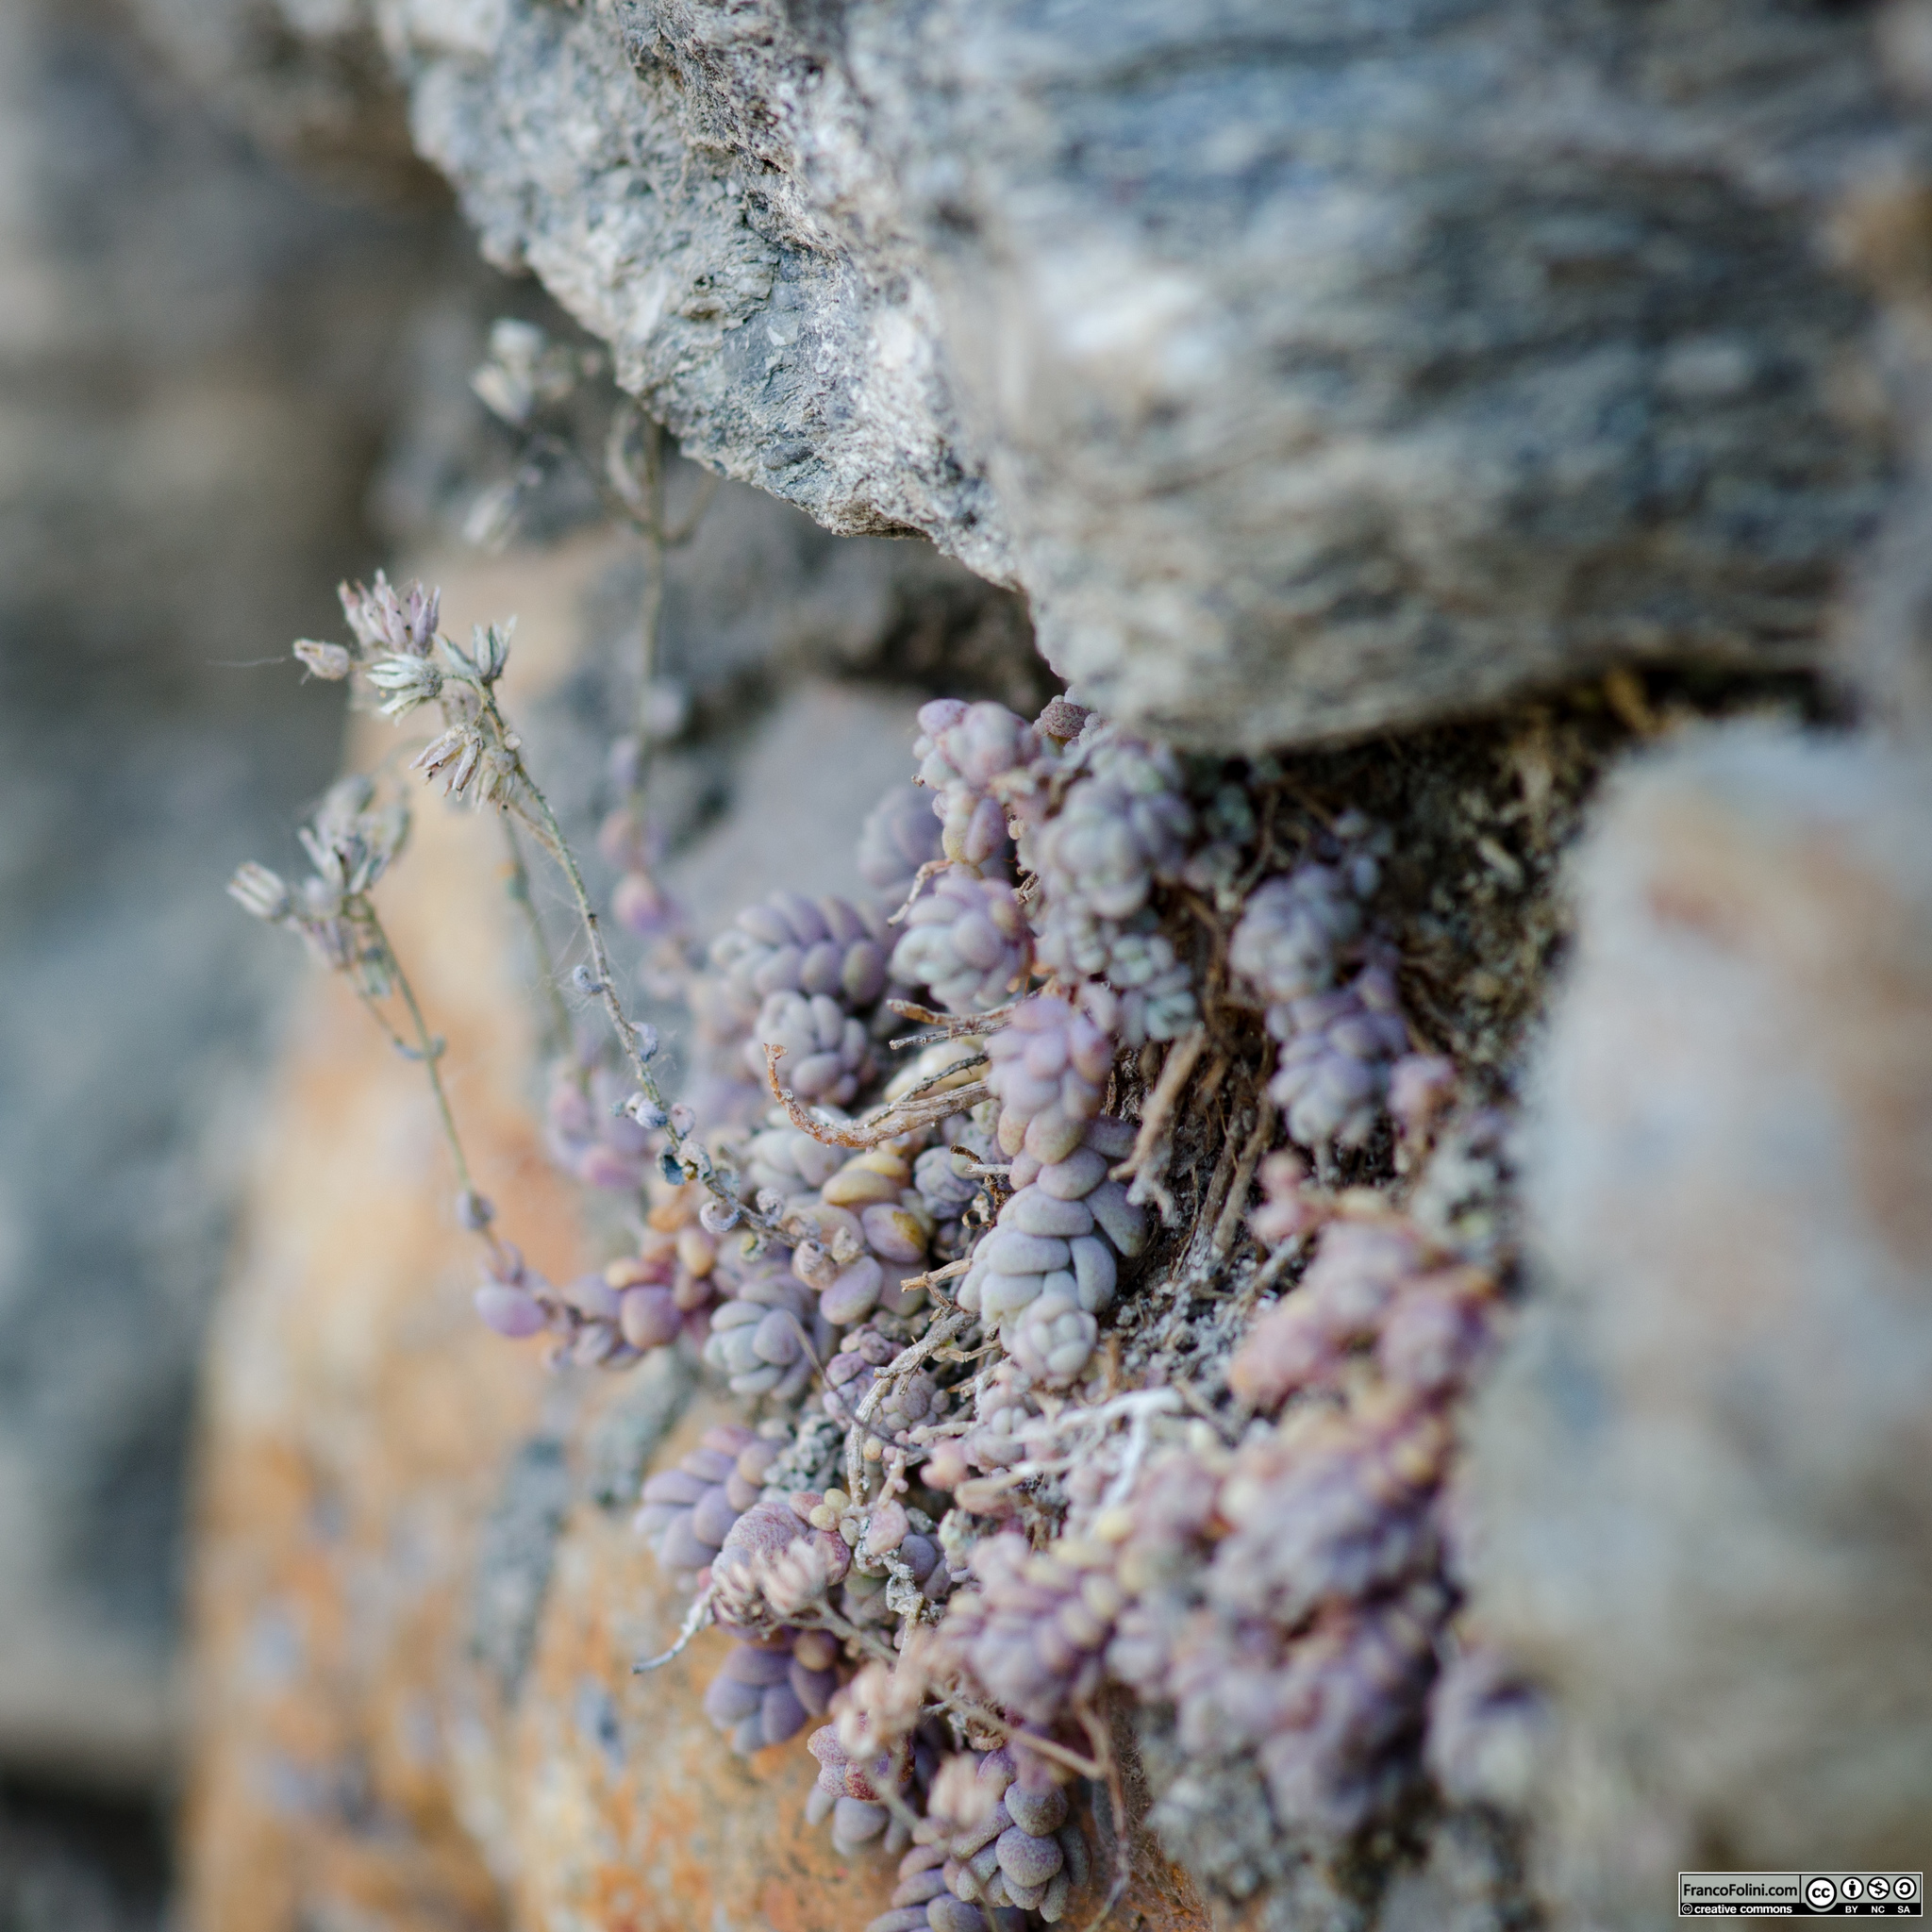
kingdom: Plantae
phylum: Tracheophyta
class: Magnoliopsida
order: Saxifragales
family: Crassulaceae
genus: Sedum
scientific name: Sedum dasyphyllum
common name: Thick-leaf stonecrop
